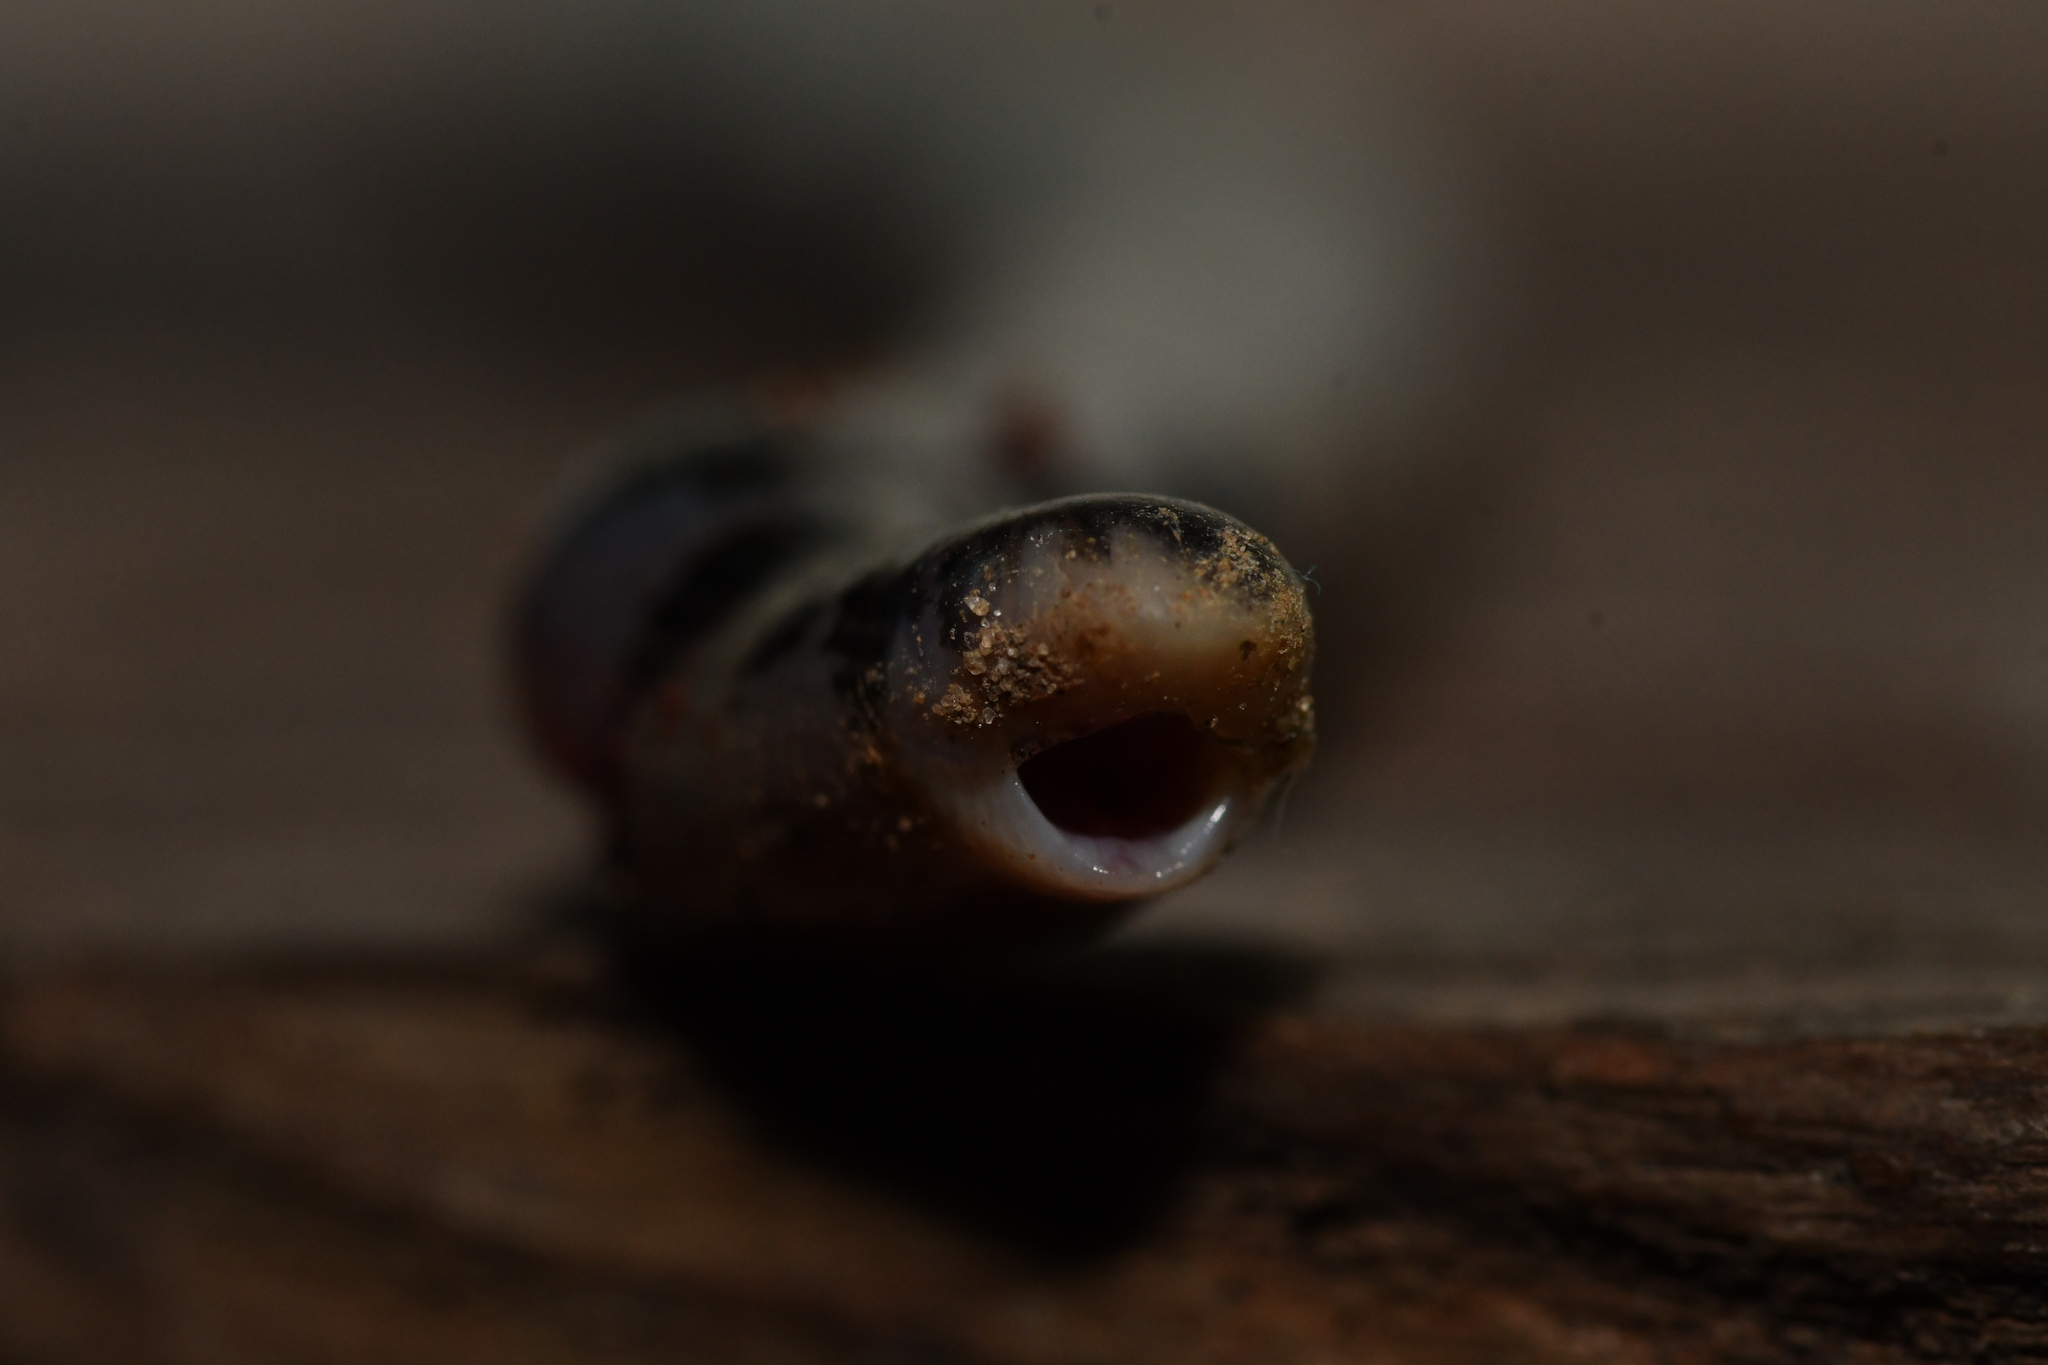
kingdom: Animalia
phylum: Chordata
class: Squamata
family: Typhlopidae
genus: Afrotyphlops
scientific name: Afrotyphlops punctatus
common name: Spotted blind snake
